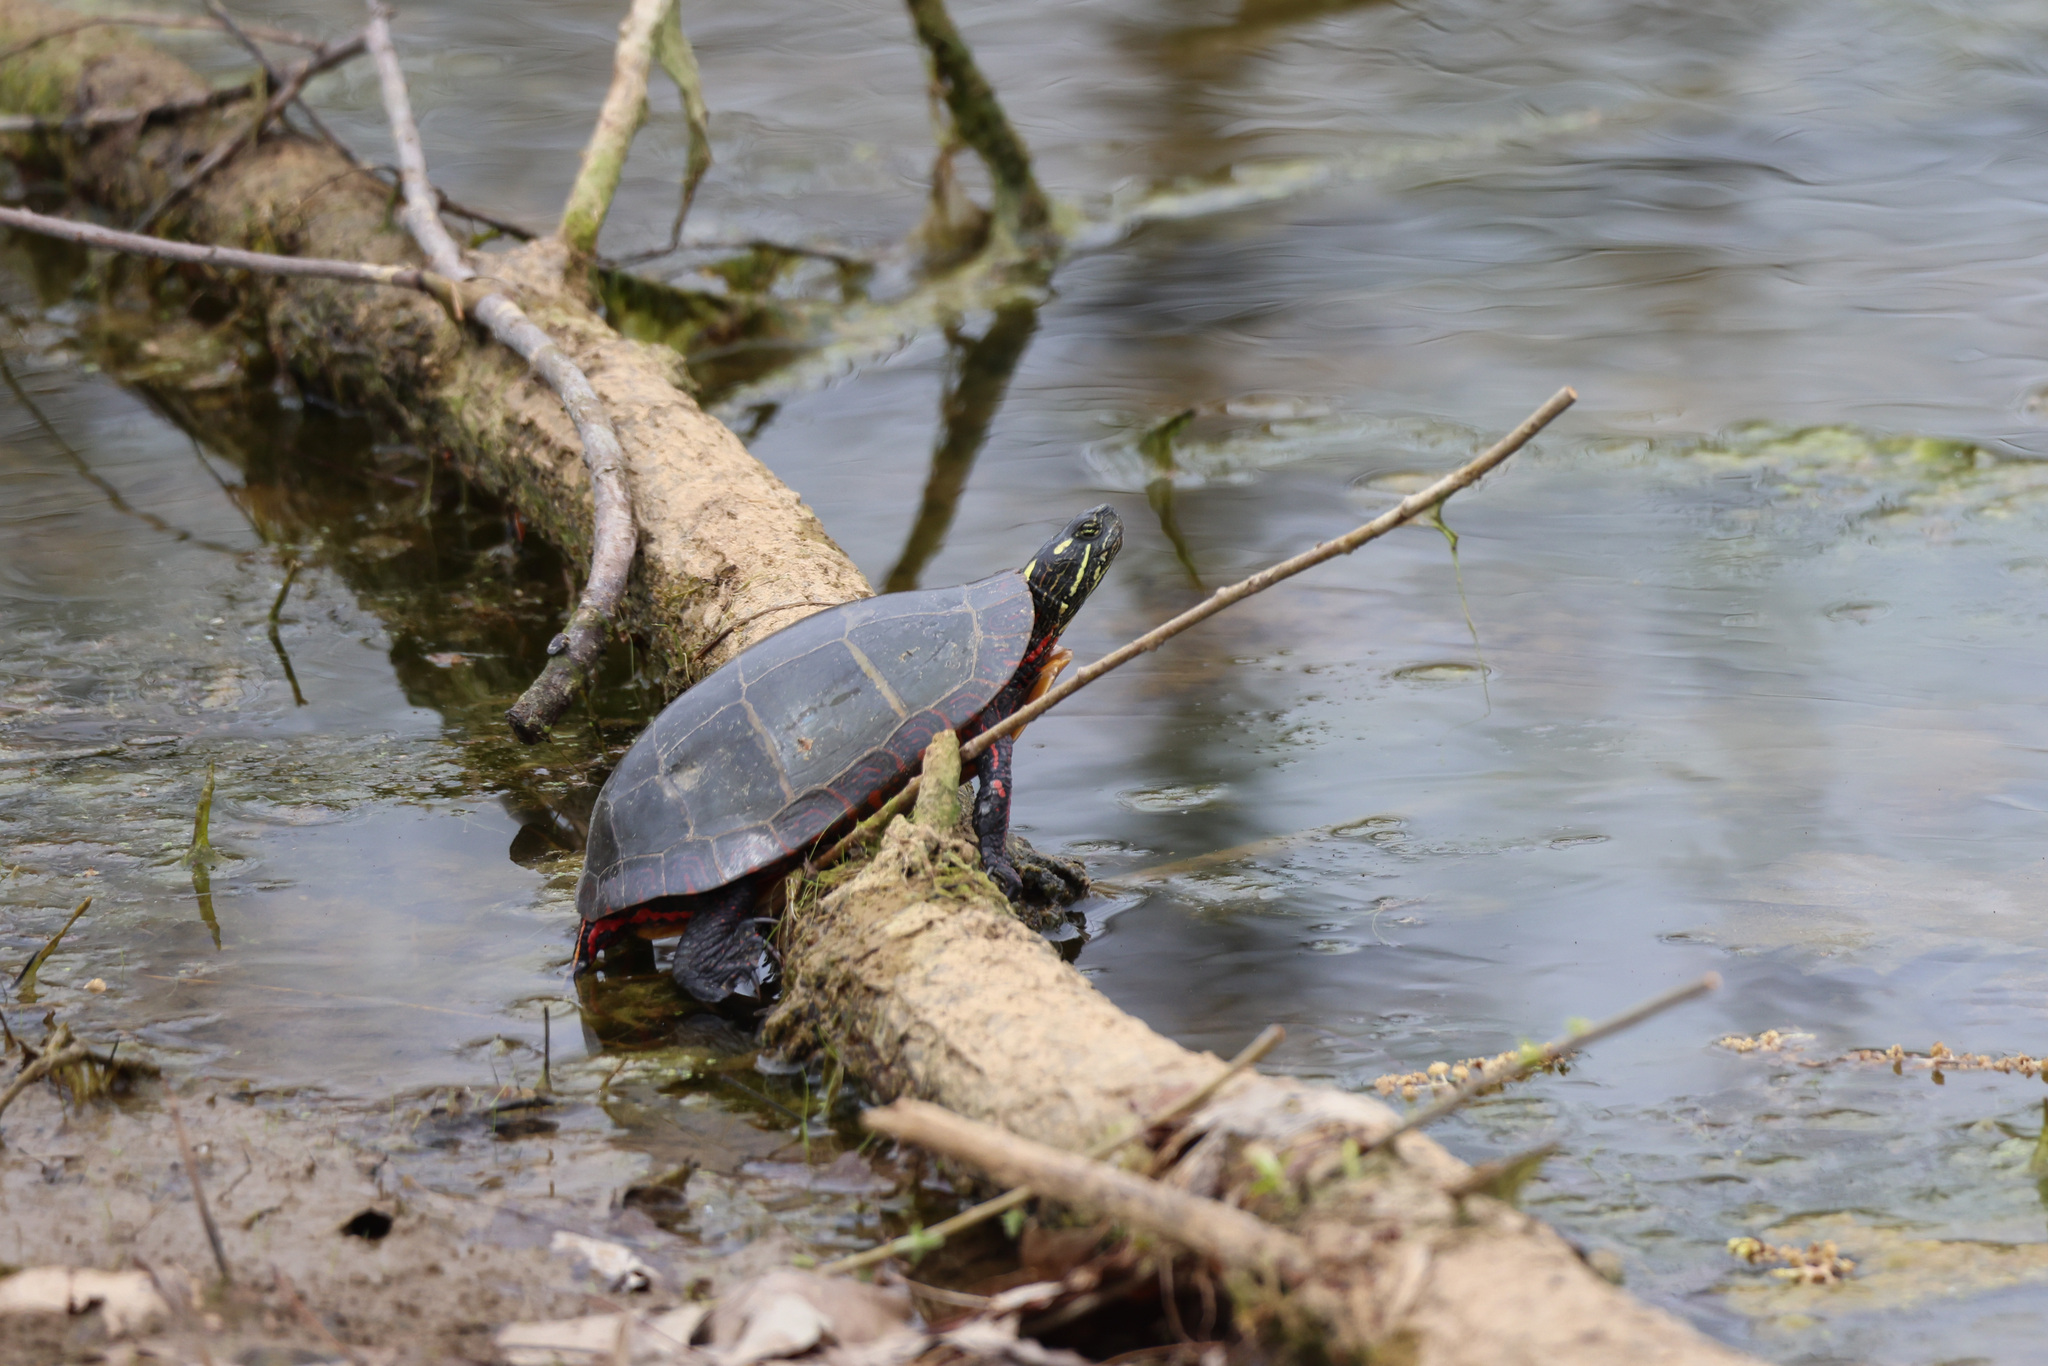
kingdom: Animalia
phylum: Chordata
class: Testudines
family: Emydidae
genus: Chrysemys
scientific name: Chrysemys picta
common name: Painted turtle
